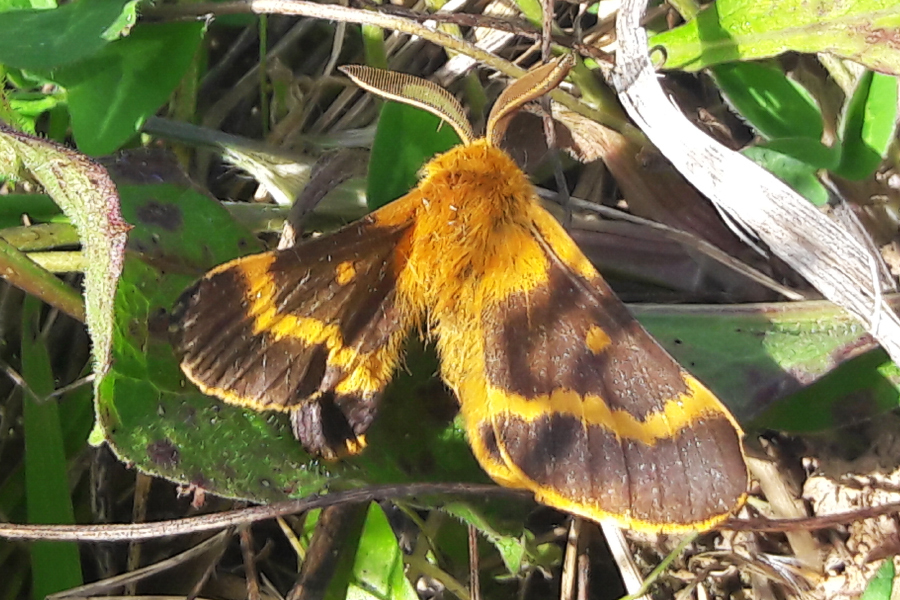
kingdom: Animalia
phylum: Arthropoda
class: Insecta
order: Lepidoptera
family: Brahmaeidae
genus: Lemonia
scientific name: Lemonia dumi
